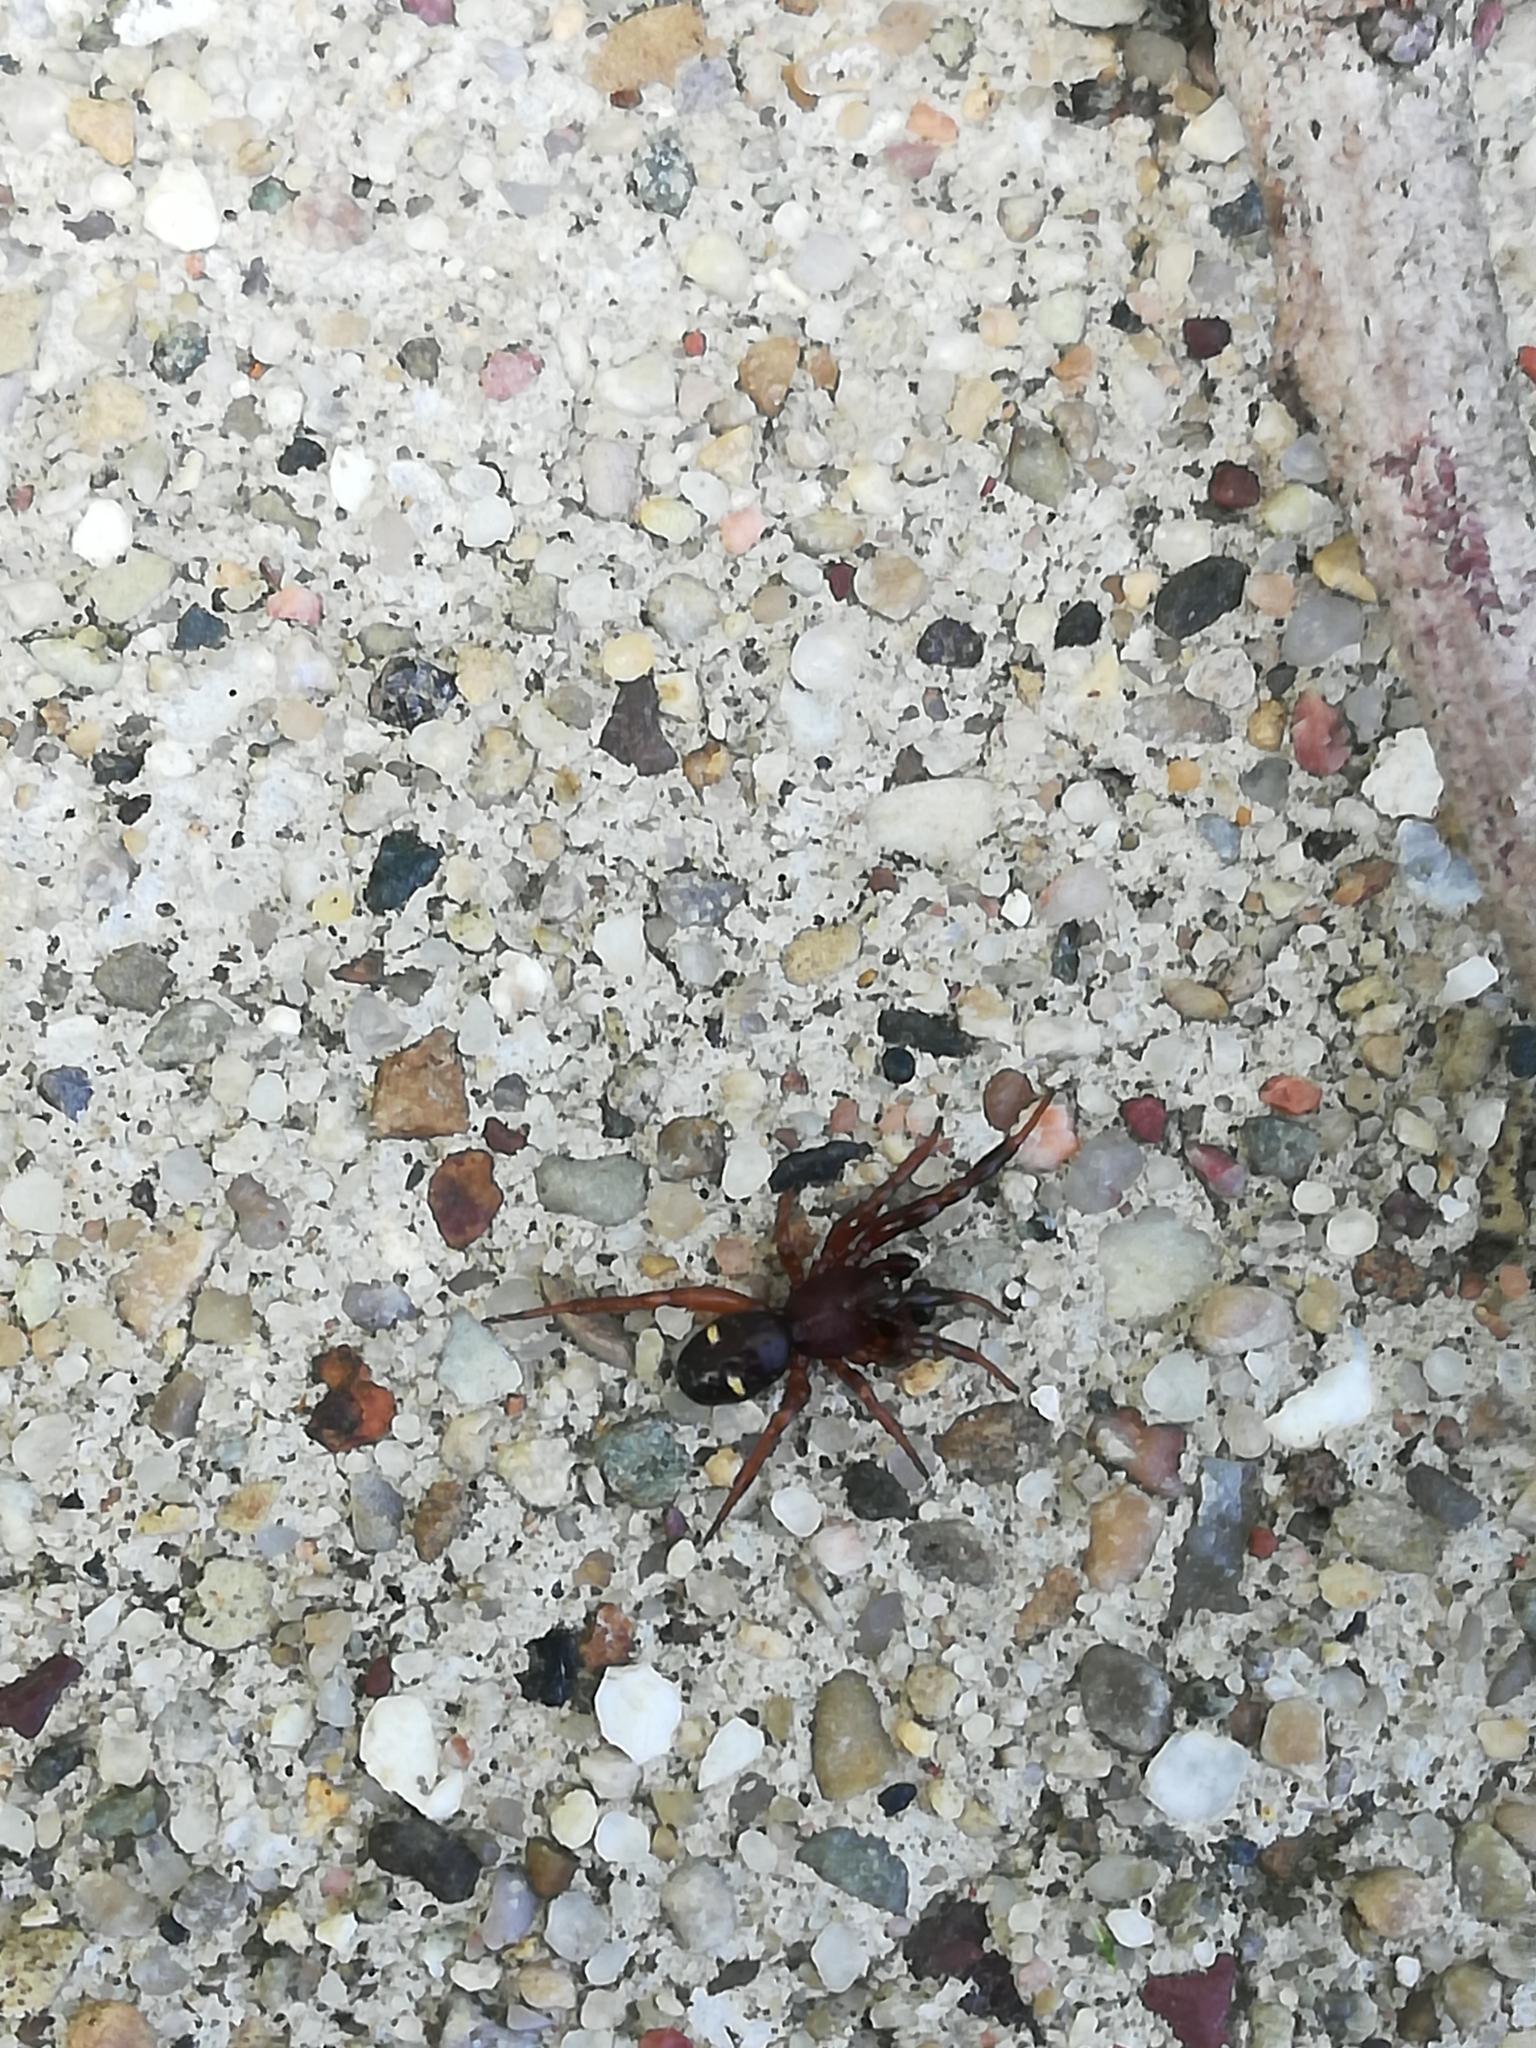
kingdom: Animalia
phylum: Arthropoda
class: Arachnida
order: Araneae
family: Theridiidae
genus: Asagena
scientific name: Asagena americana
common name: Two-spotted cobweb spider
